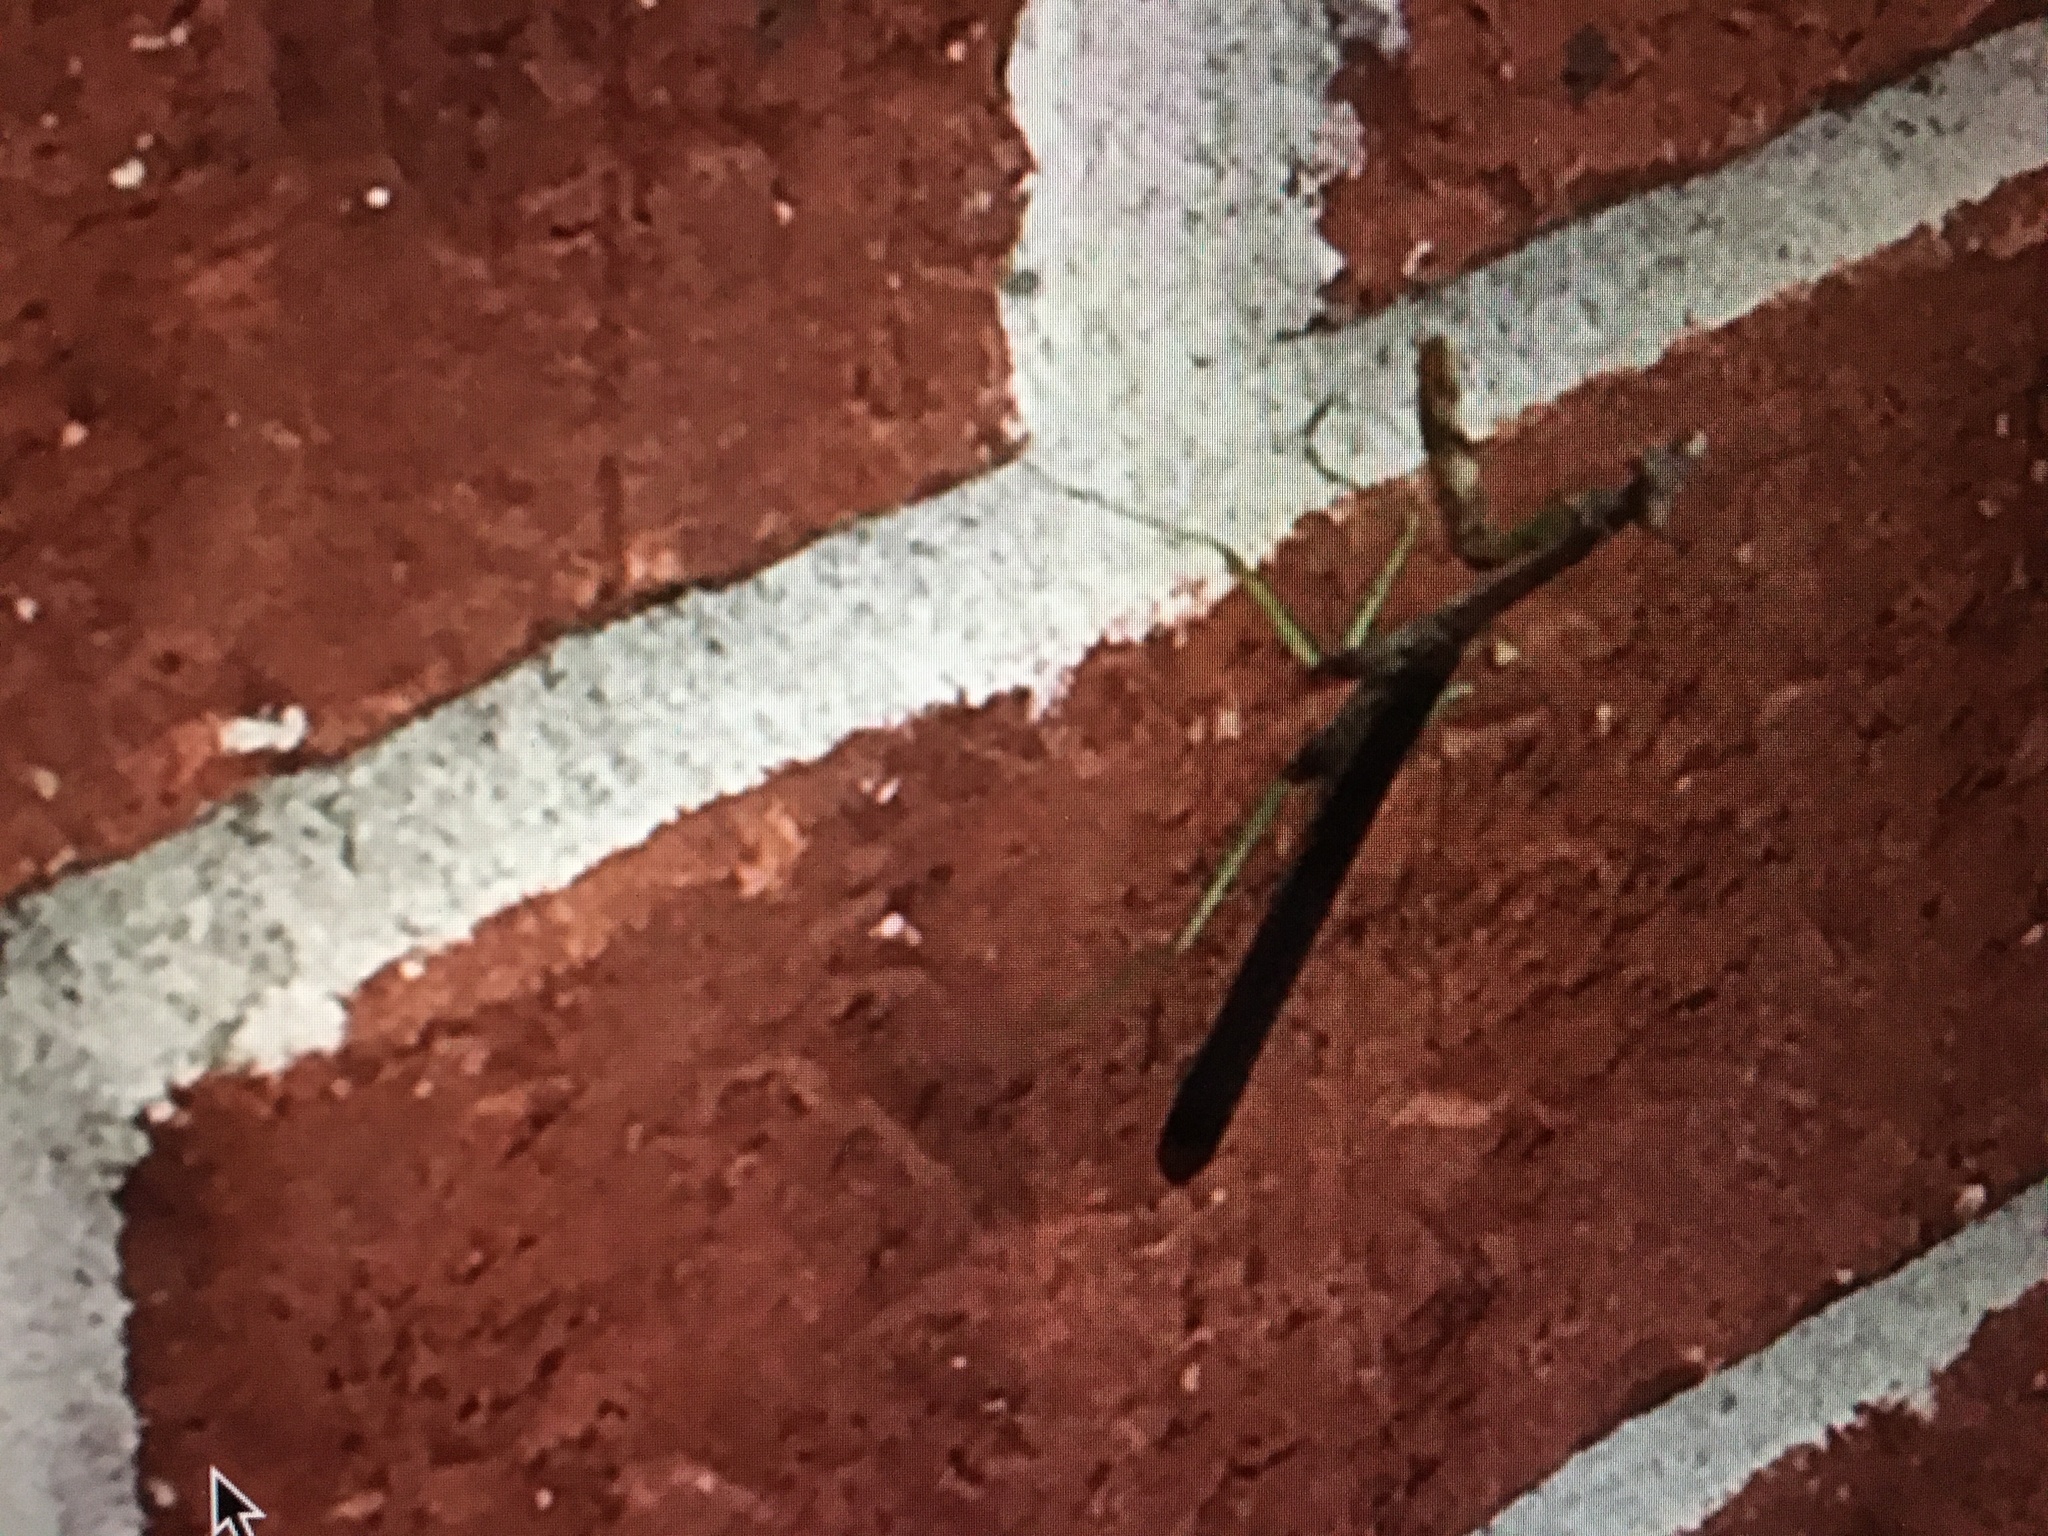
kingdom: Animalia
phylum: Arthropoda
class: Insecta
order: Mantodea
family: Mantidae
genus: Stagmomantis
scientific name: Stagmomantis carolina
